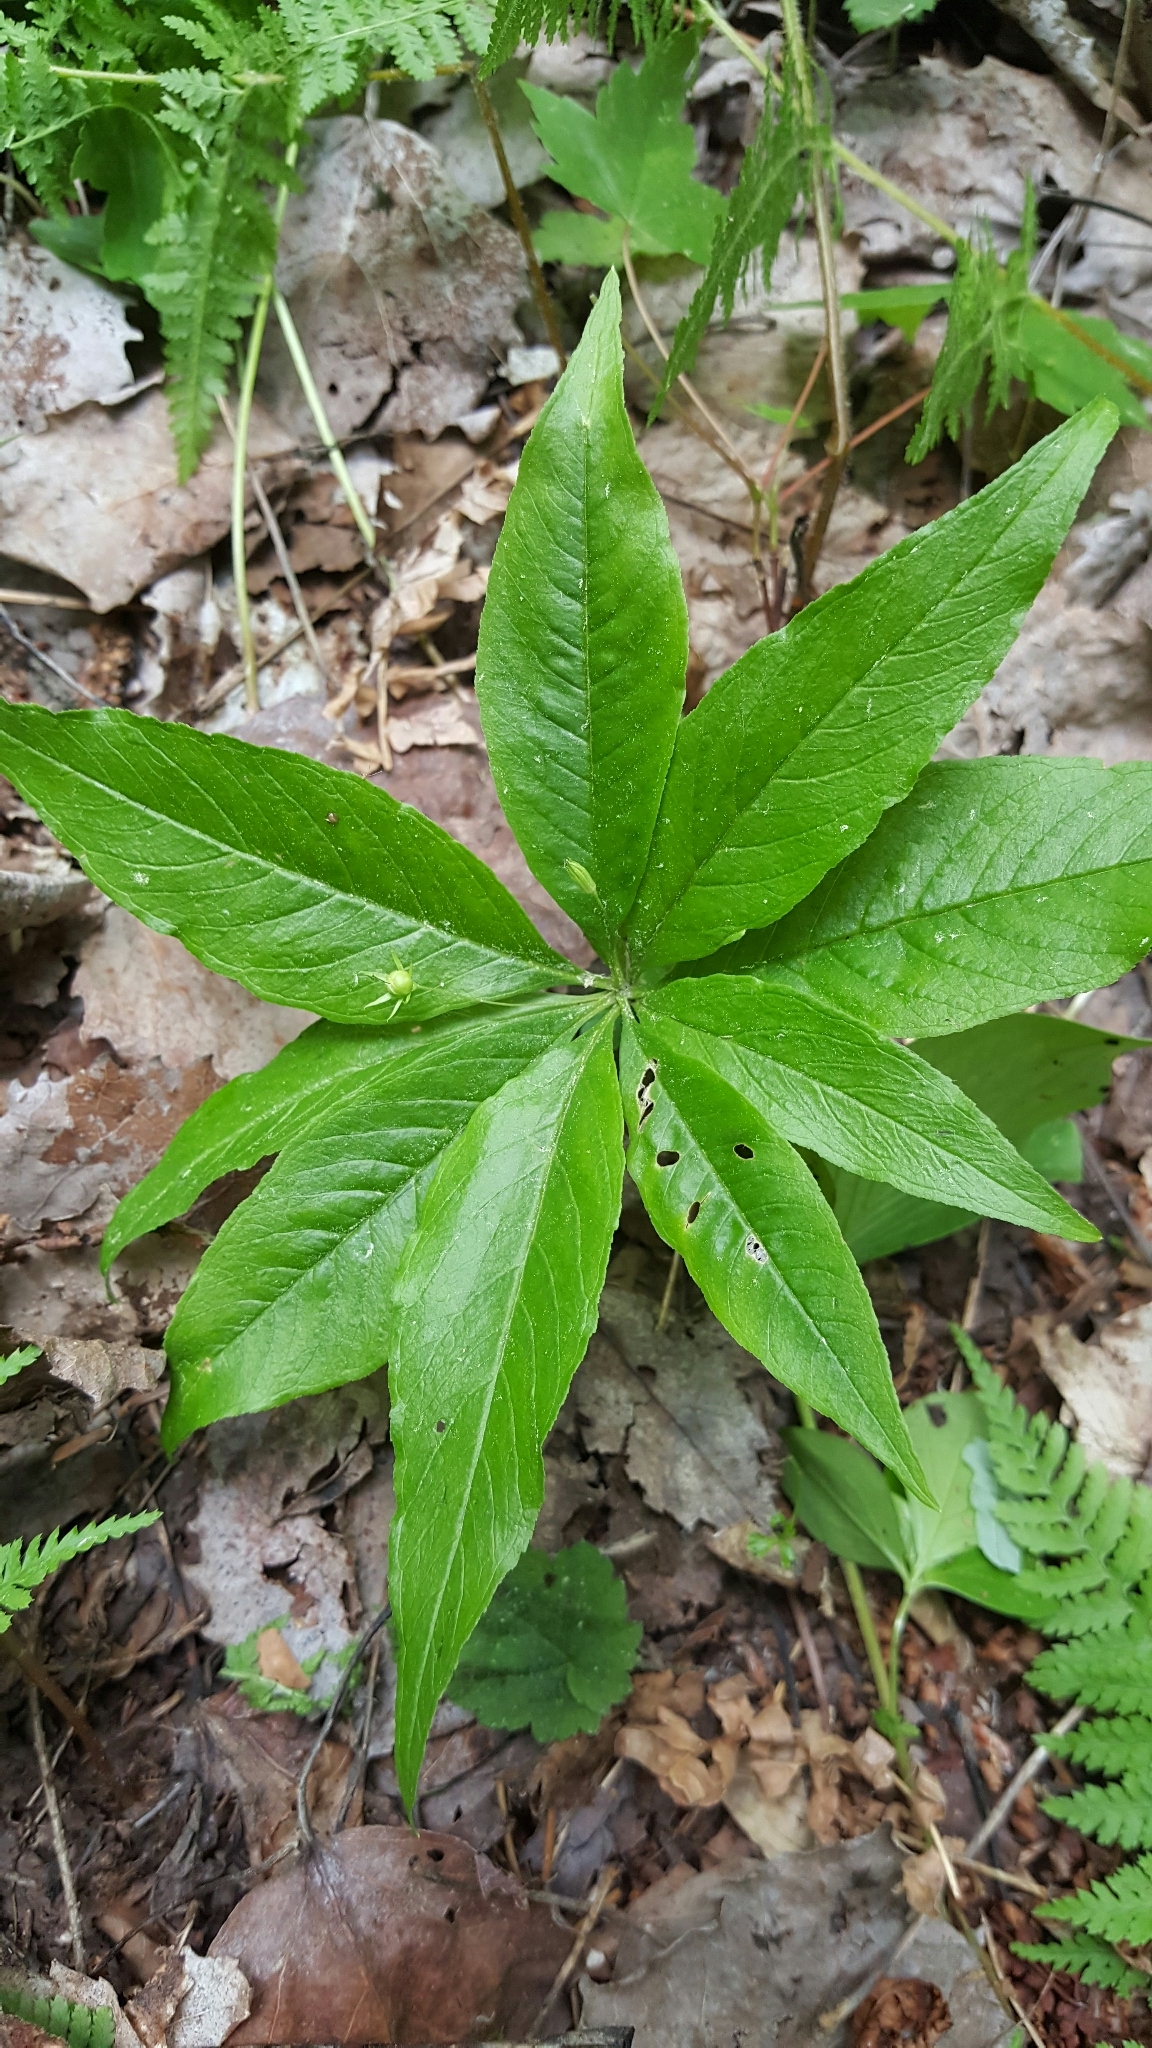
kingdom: Plantae
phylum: Tracheophyta
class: Magnoliopsida
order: Ericales
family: Primulaceae
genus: Lysimachia
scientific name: Lysimachia borealis
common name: American starflower
